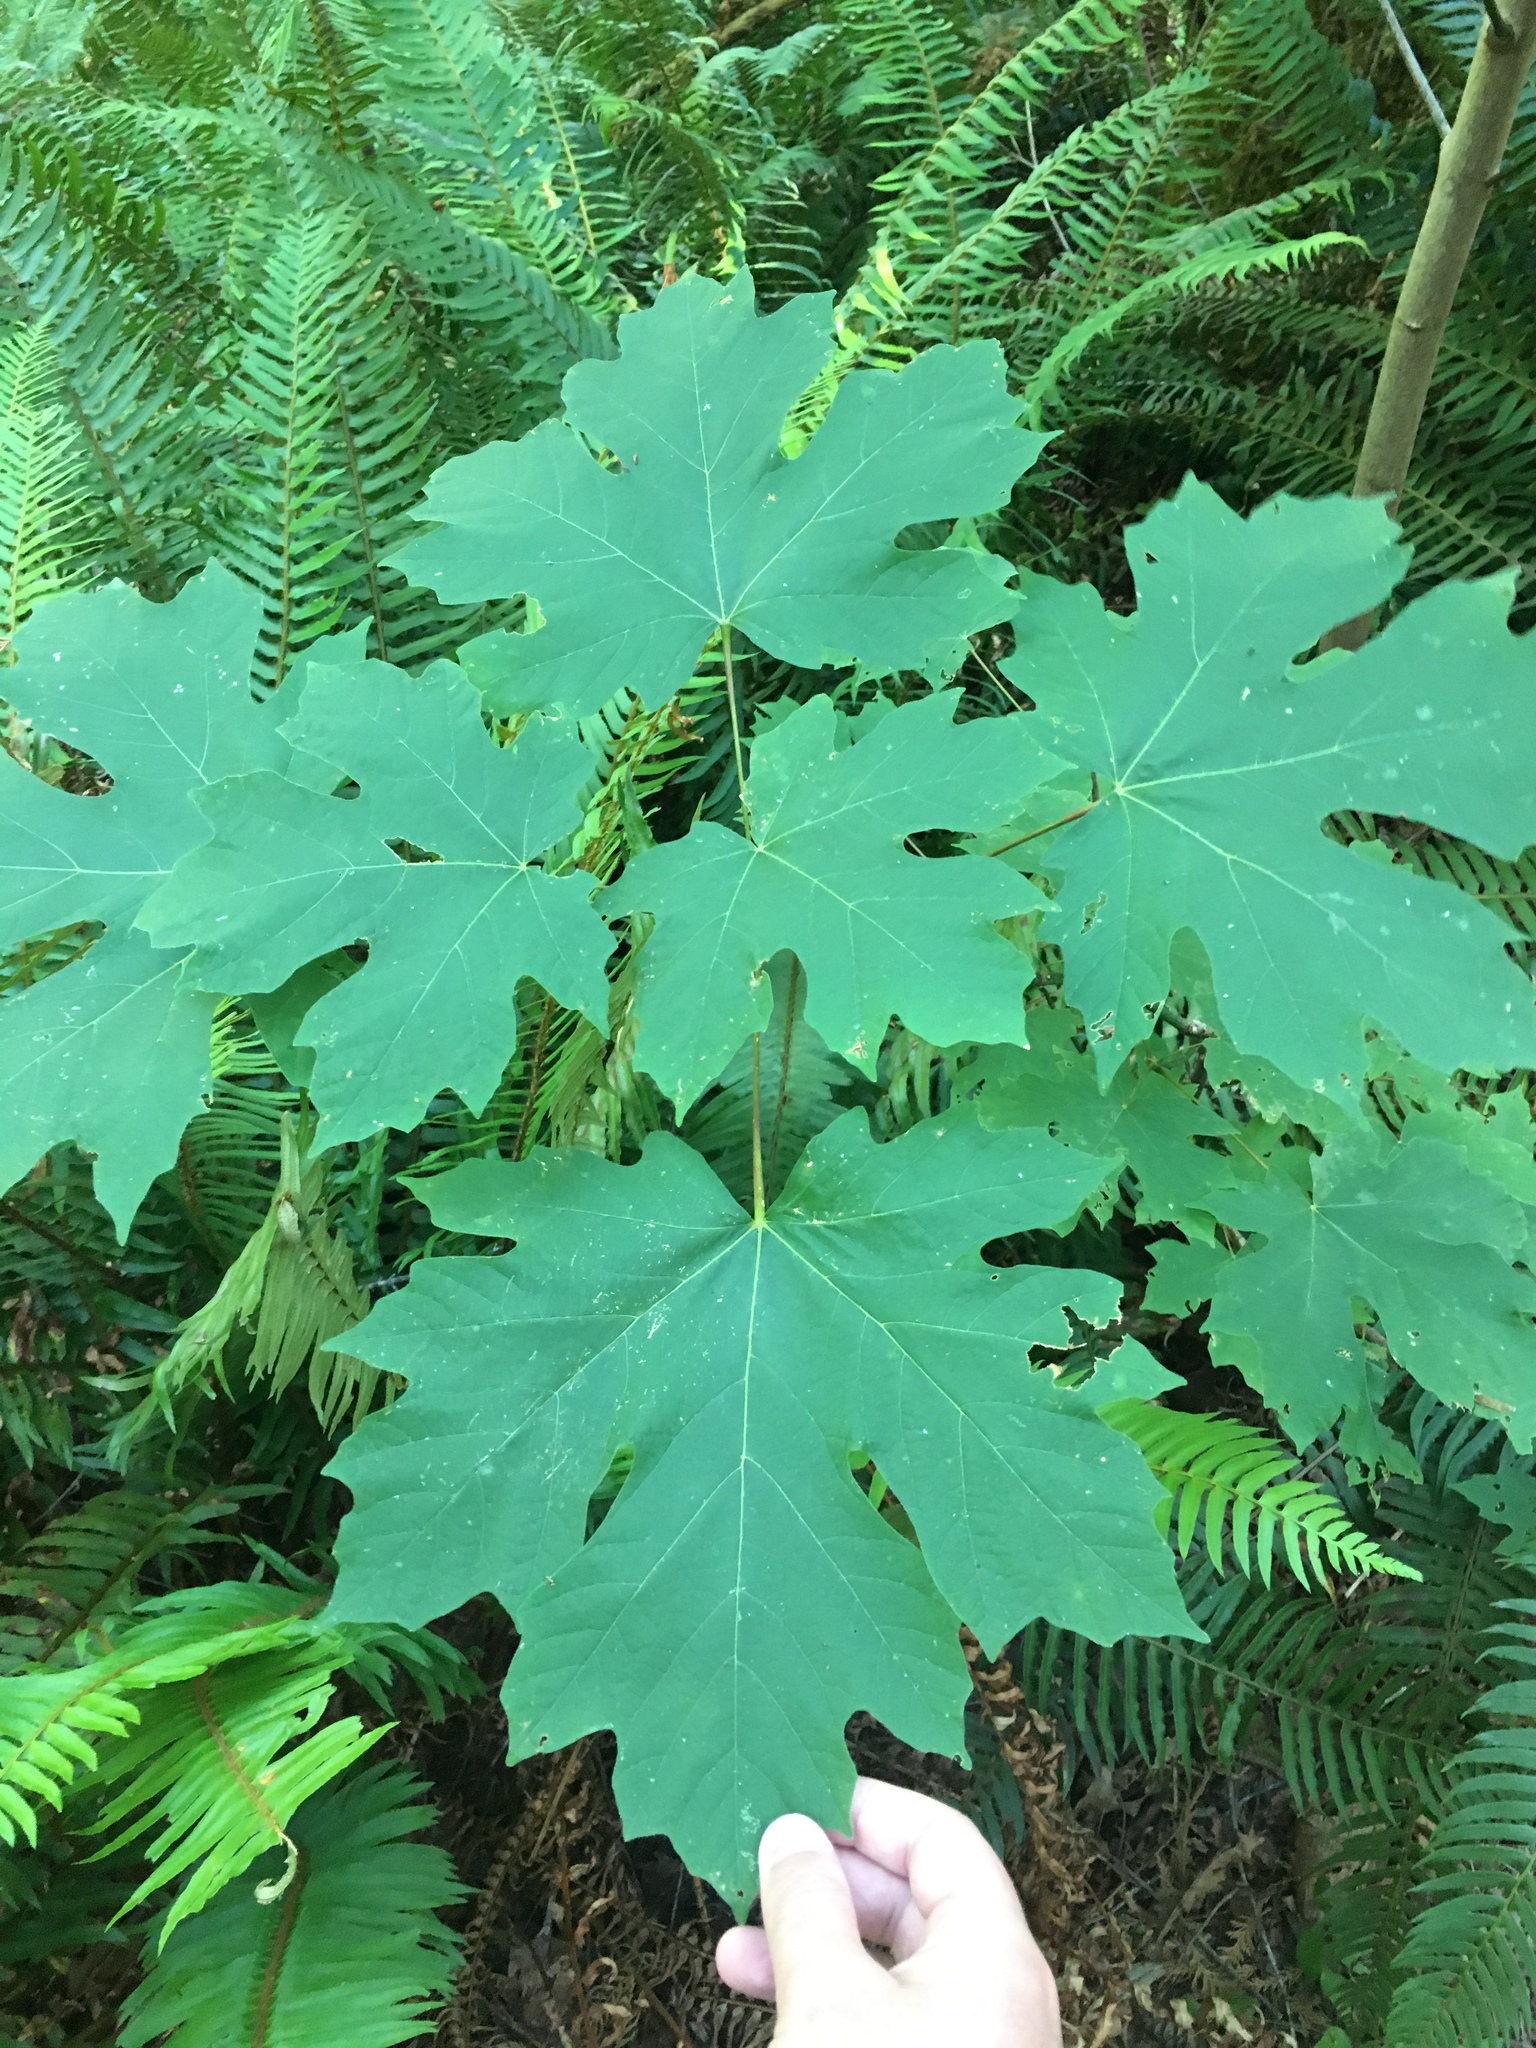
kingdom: Plantae
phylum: Tracheophyta
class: Magnoliopsida
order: Sapindales
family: Sapindaceae
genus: Acer
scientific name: Acer macrophyllum
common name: Oregon maple
